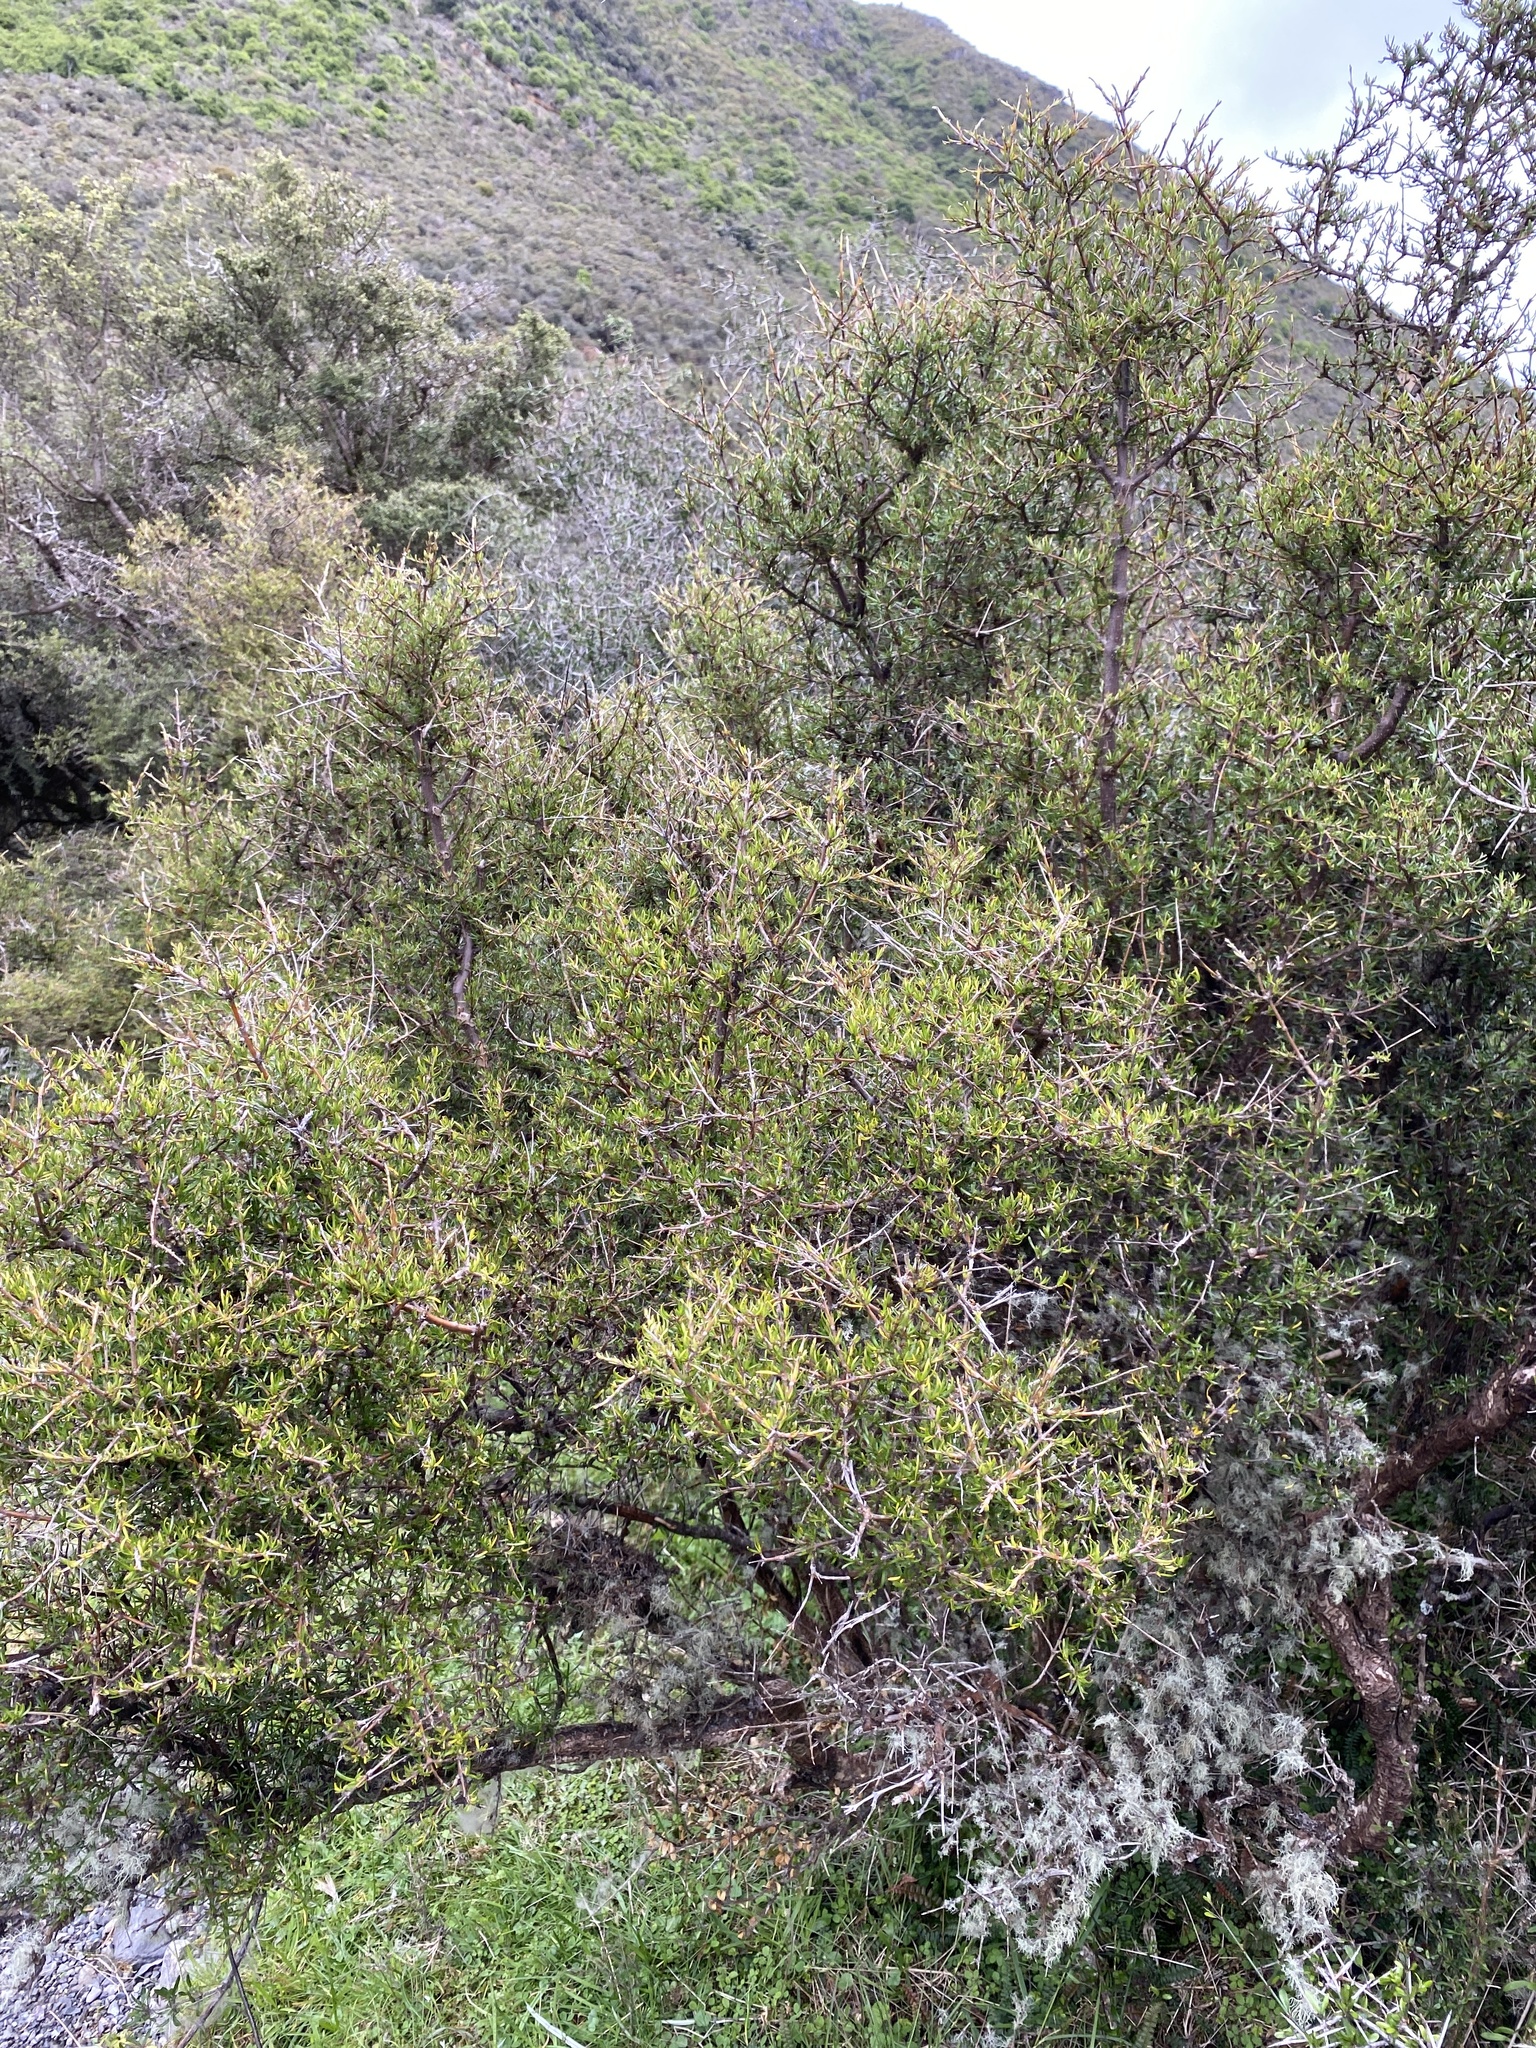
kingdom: Plantae
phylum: Tracheophyta
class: Magnoliopsida
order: Gentianales
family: Rubiaceae
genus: Coprosma
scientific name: Coprosma rugosa
